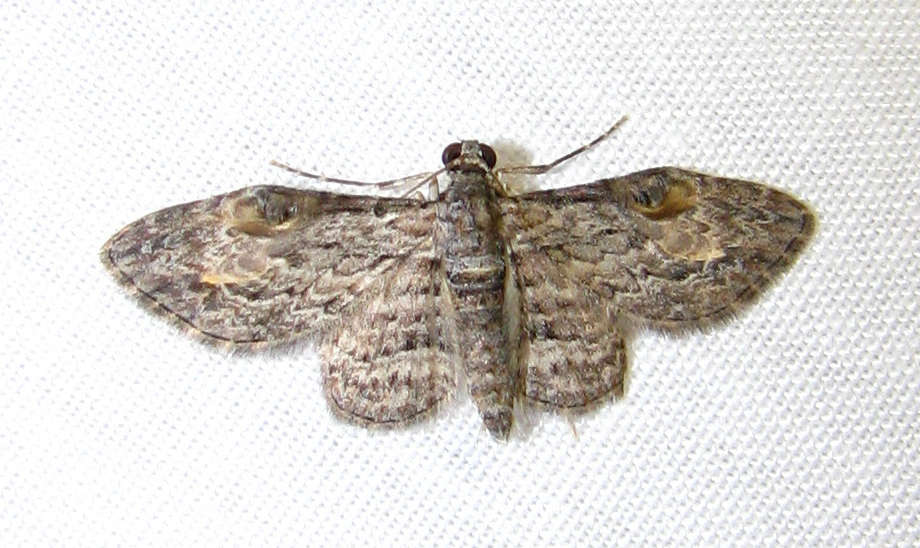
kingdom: Animalia
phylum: Arthropoda
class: Insecta
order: Lepidoptera
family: Geometridae
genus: Chloroclystis
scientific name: Chloroclystis insigillata
